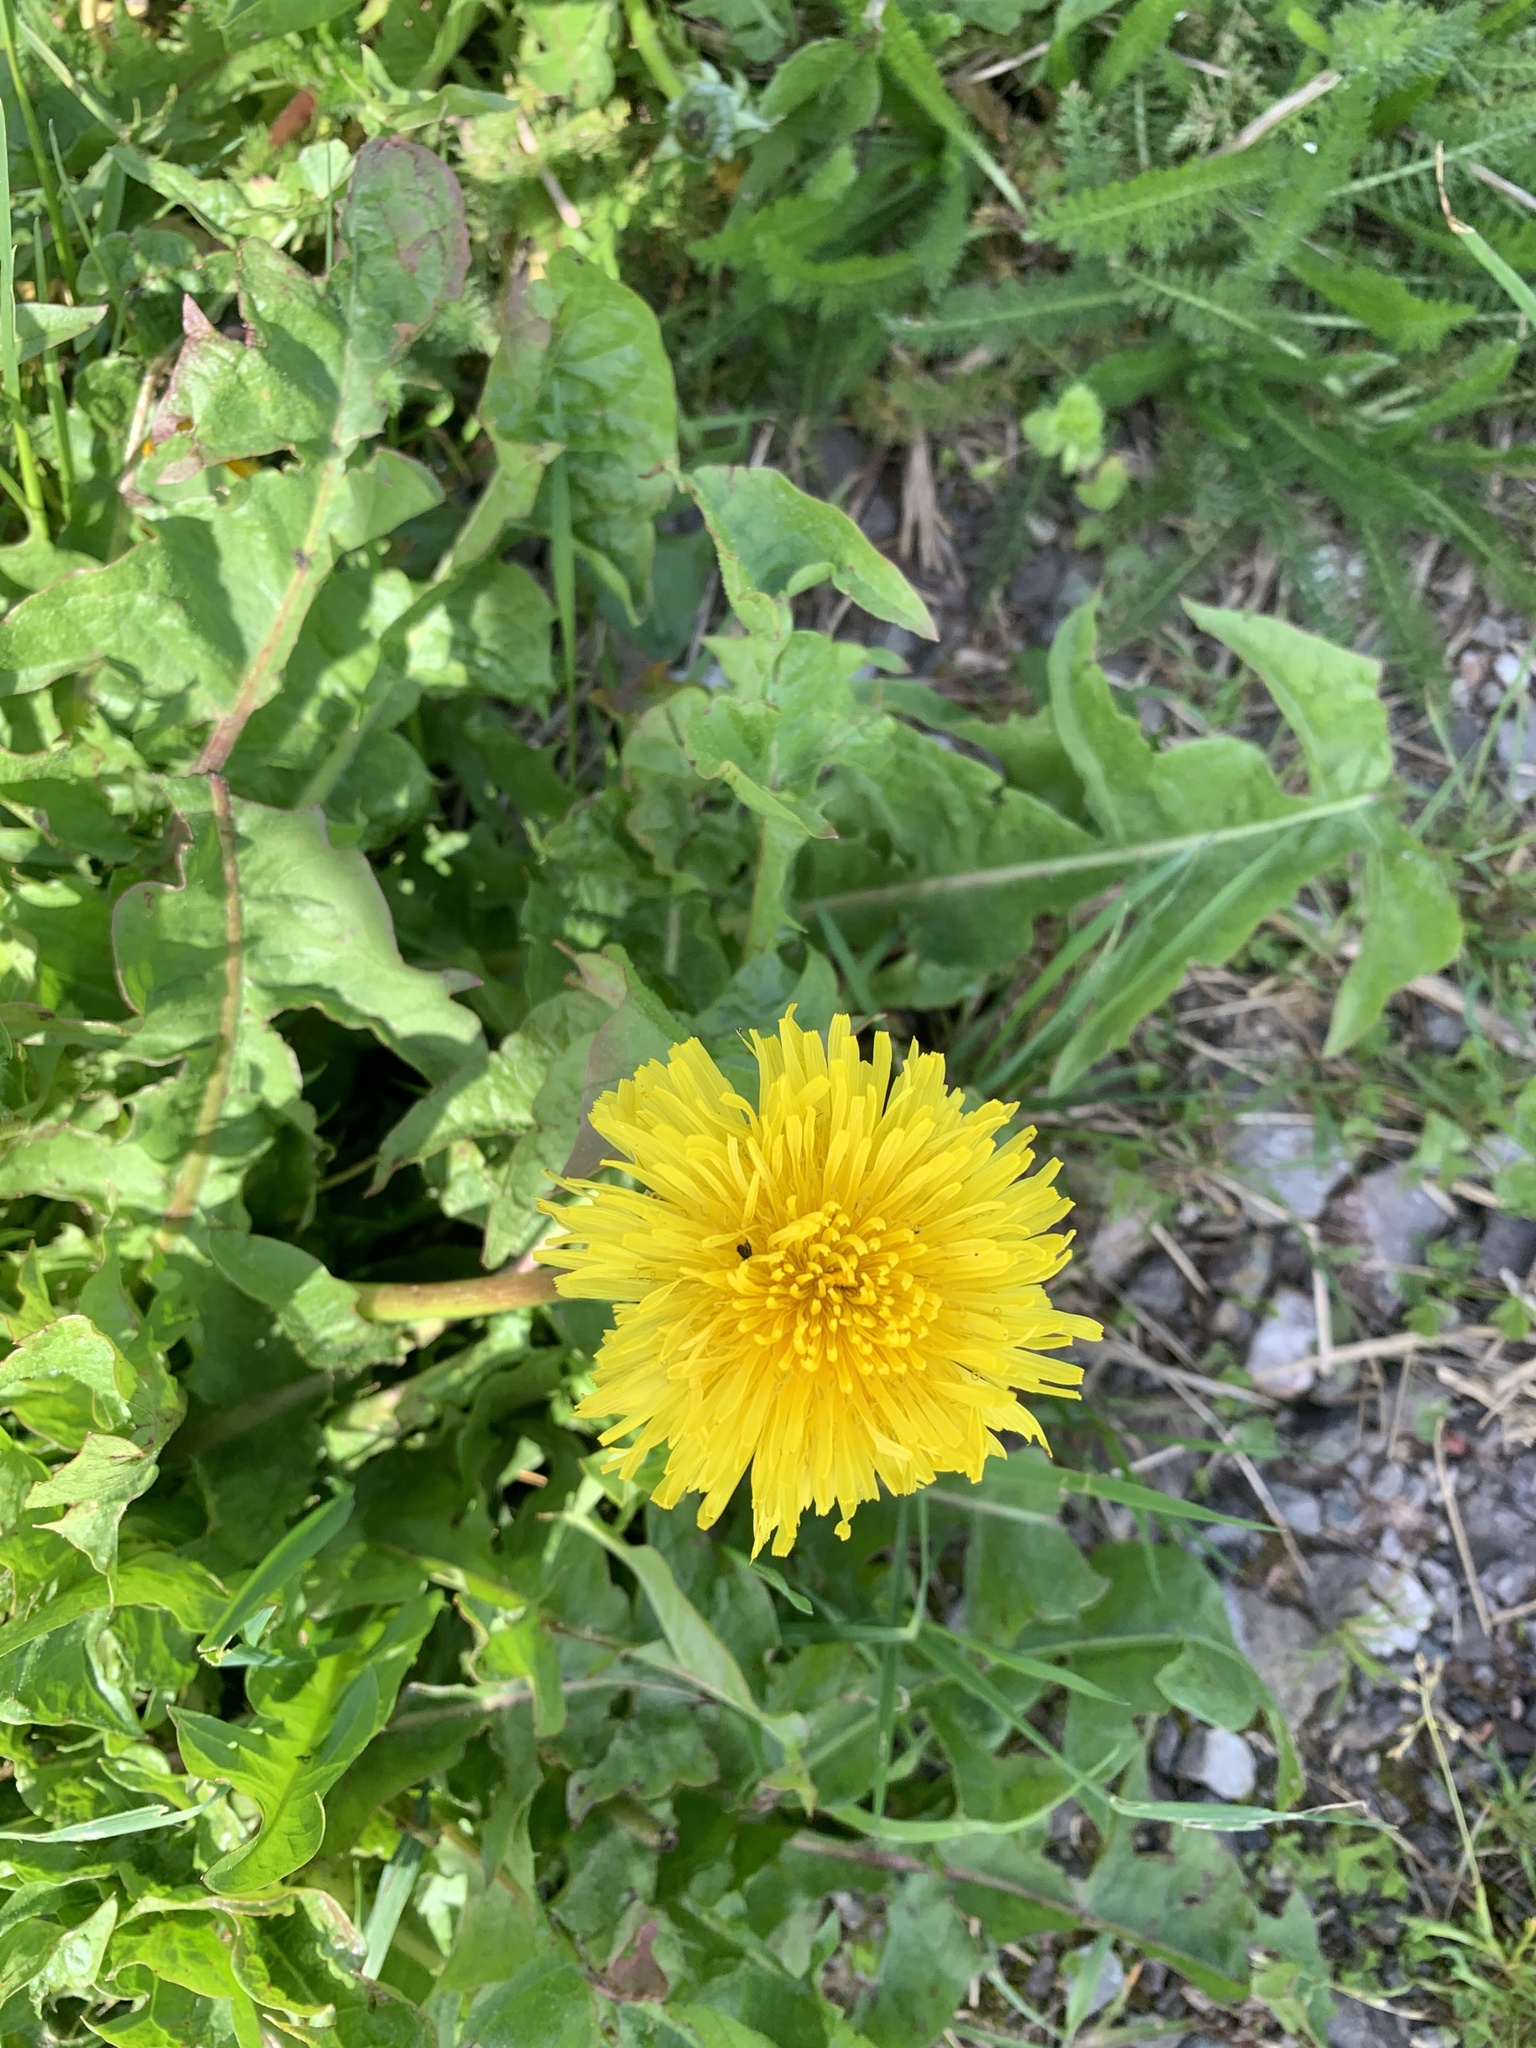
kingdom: Plantae
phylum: Tracheophyta
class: Magnoliopsida
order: Asterales
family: Asteraceae
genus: Taraxacum
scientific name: Taraxacum officinale
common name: Common dandelion
